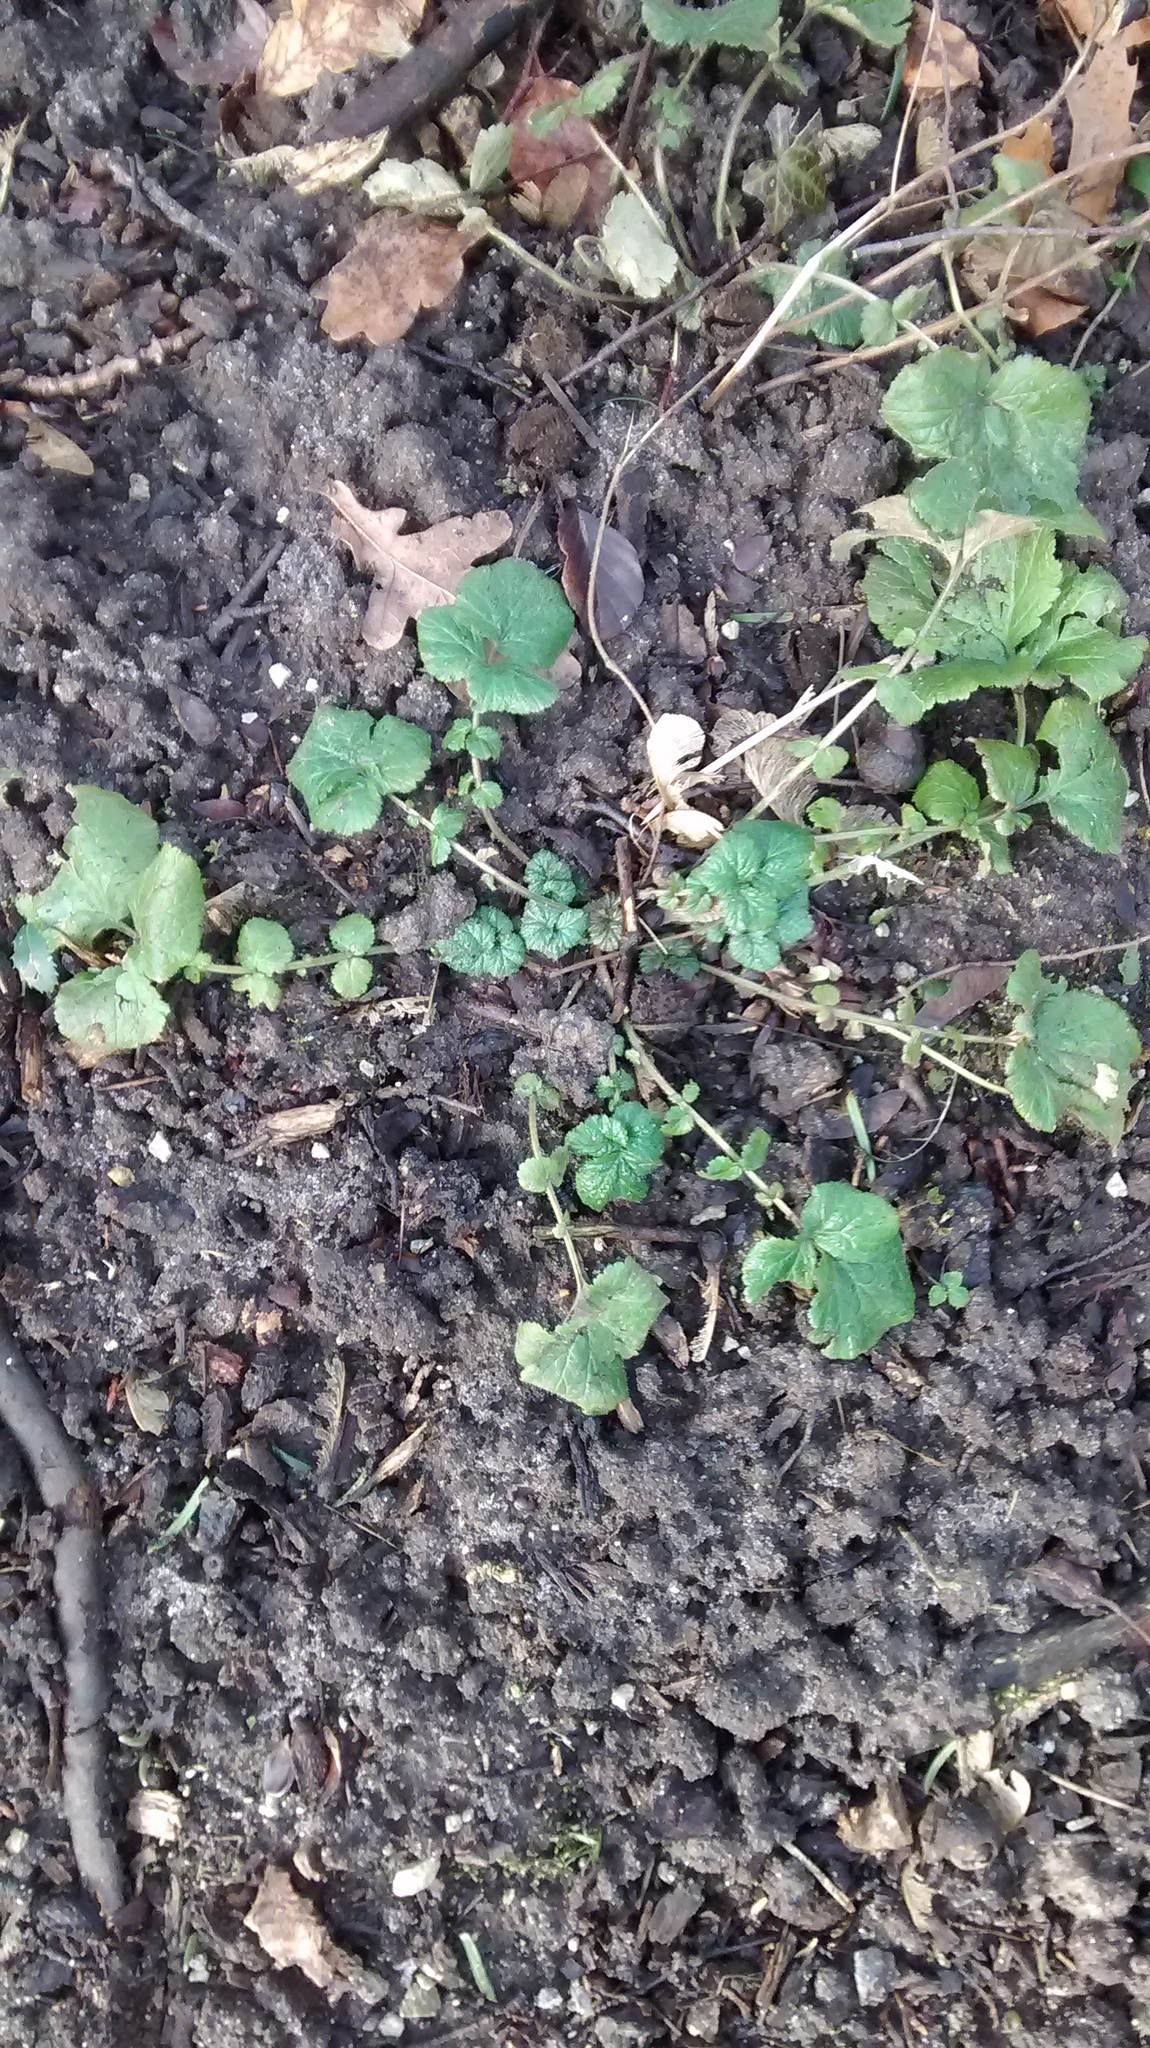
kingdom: Plantae
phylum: Tracheophyta
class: Magnoliopsida
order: Rosales
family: Rosaceae
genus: Geum
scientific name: Geum urbanum
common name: Wood avens
